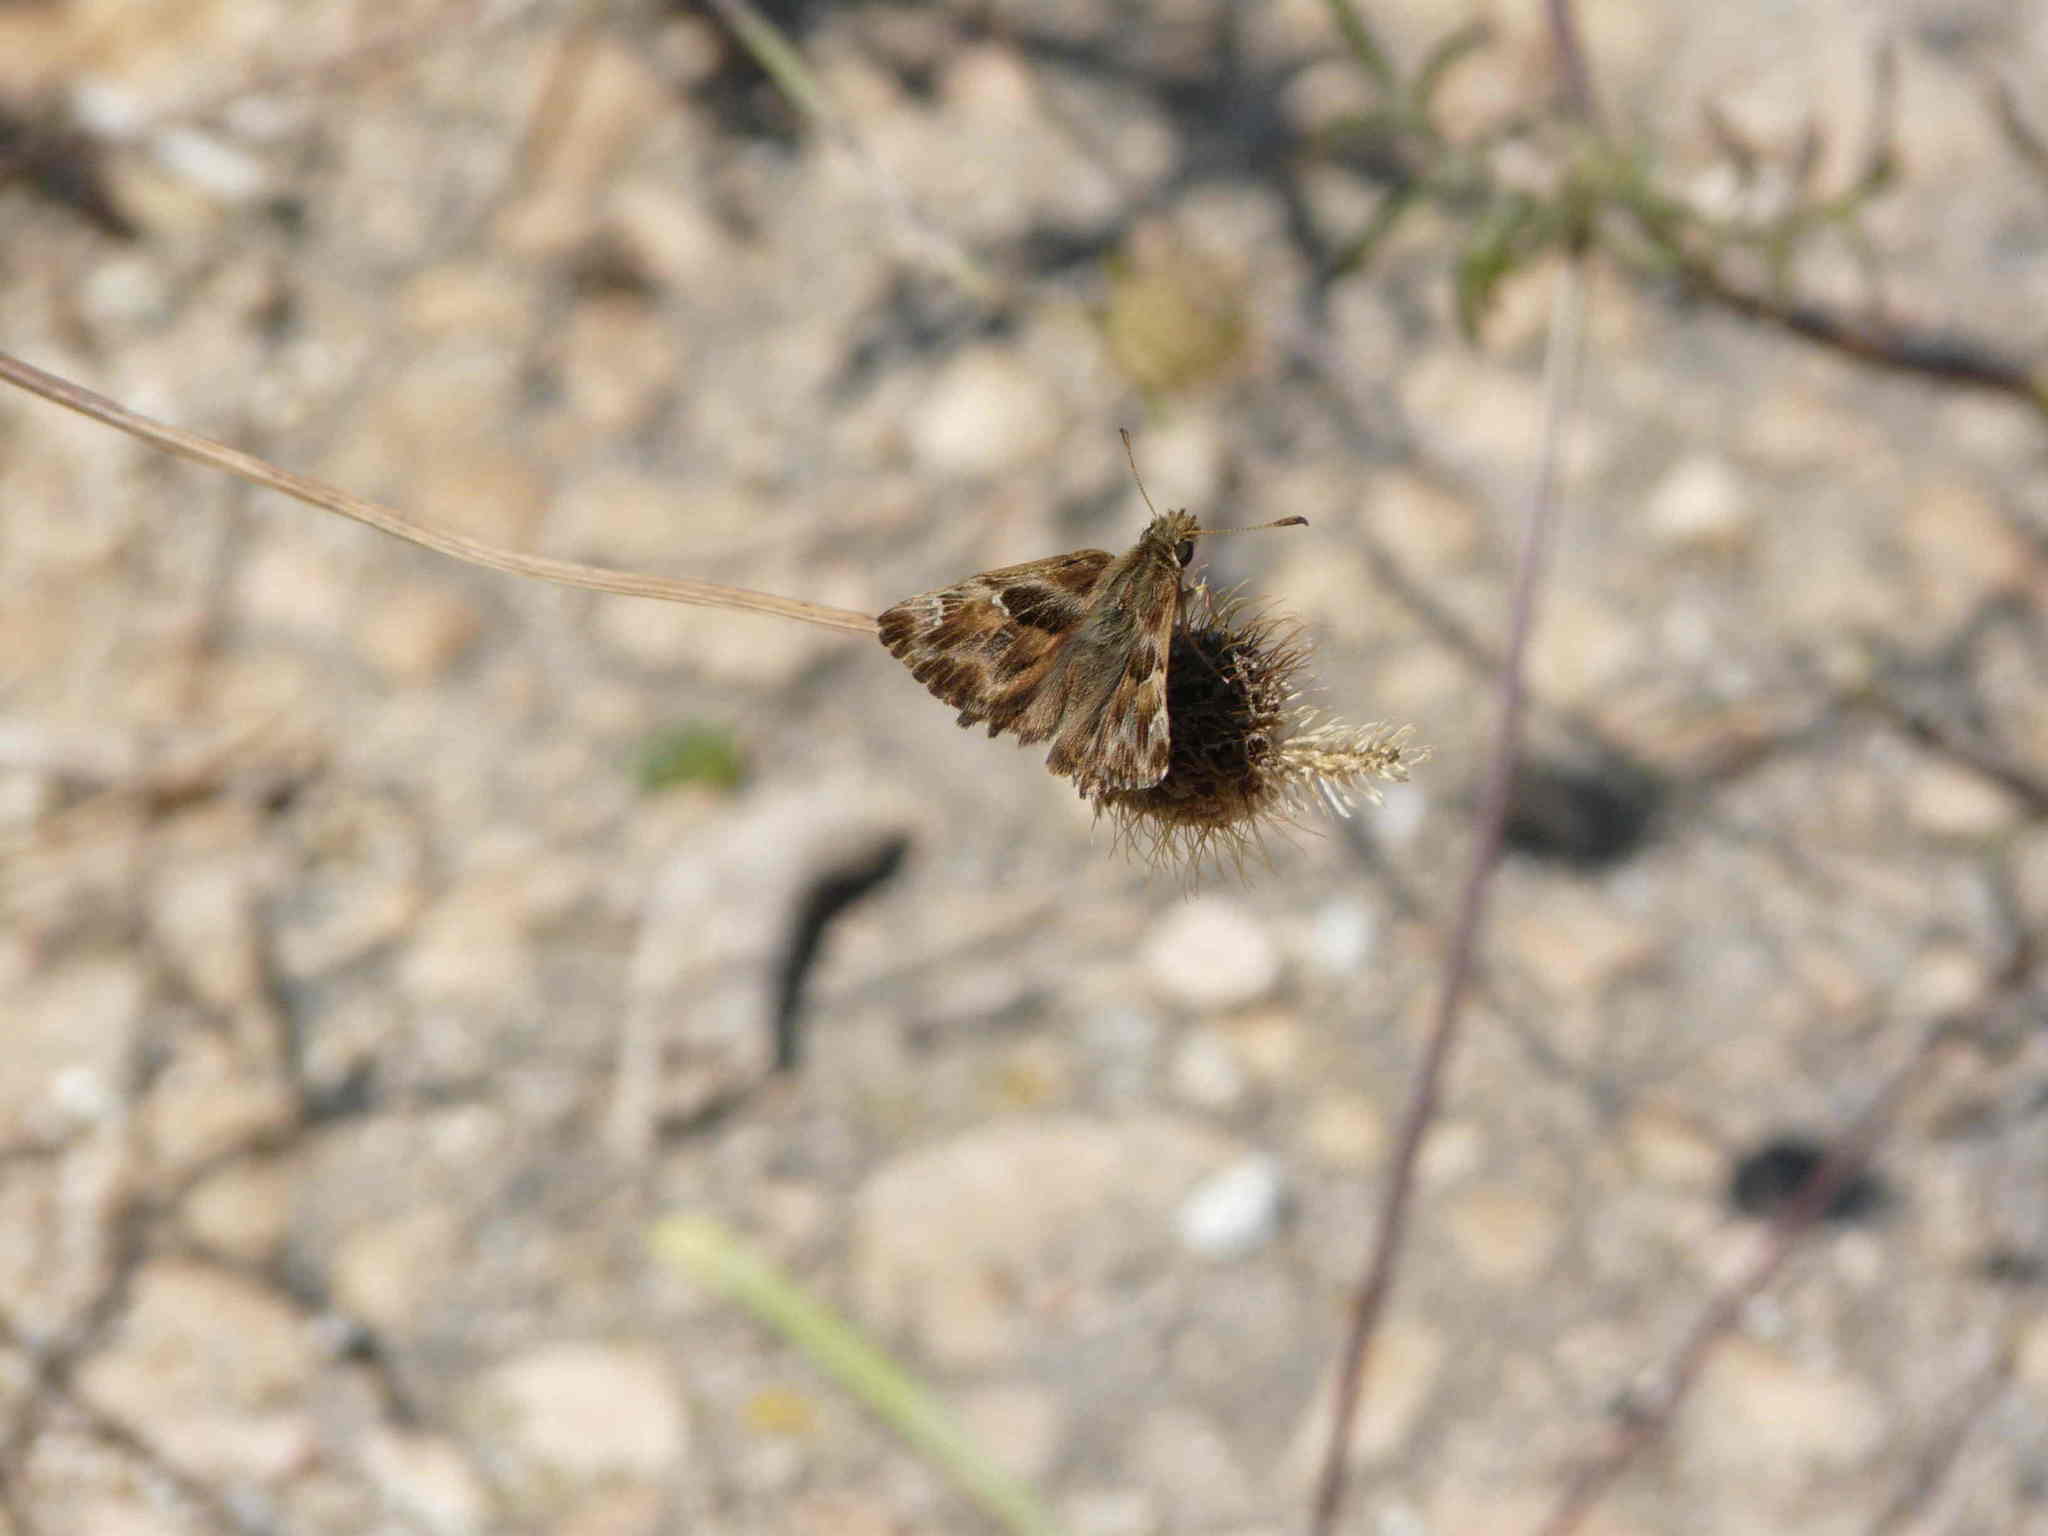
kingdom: Animalia
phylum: Arthropoda
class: Insecta
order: Lepidoptera
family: Hesperiidae
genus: Carcharodus
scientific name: Carcharodus alceae
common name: Mallow skipper
